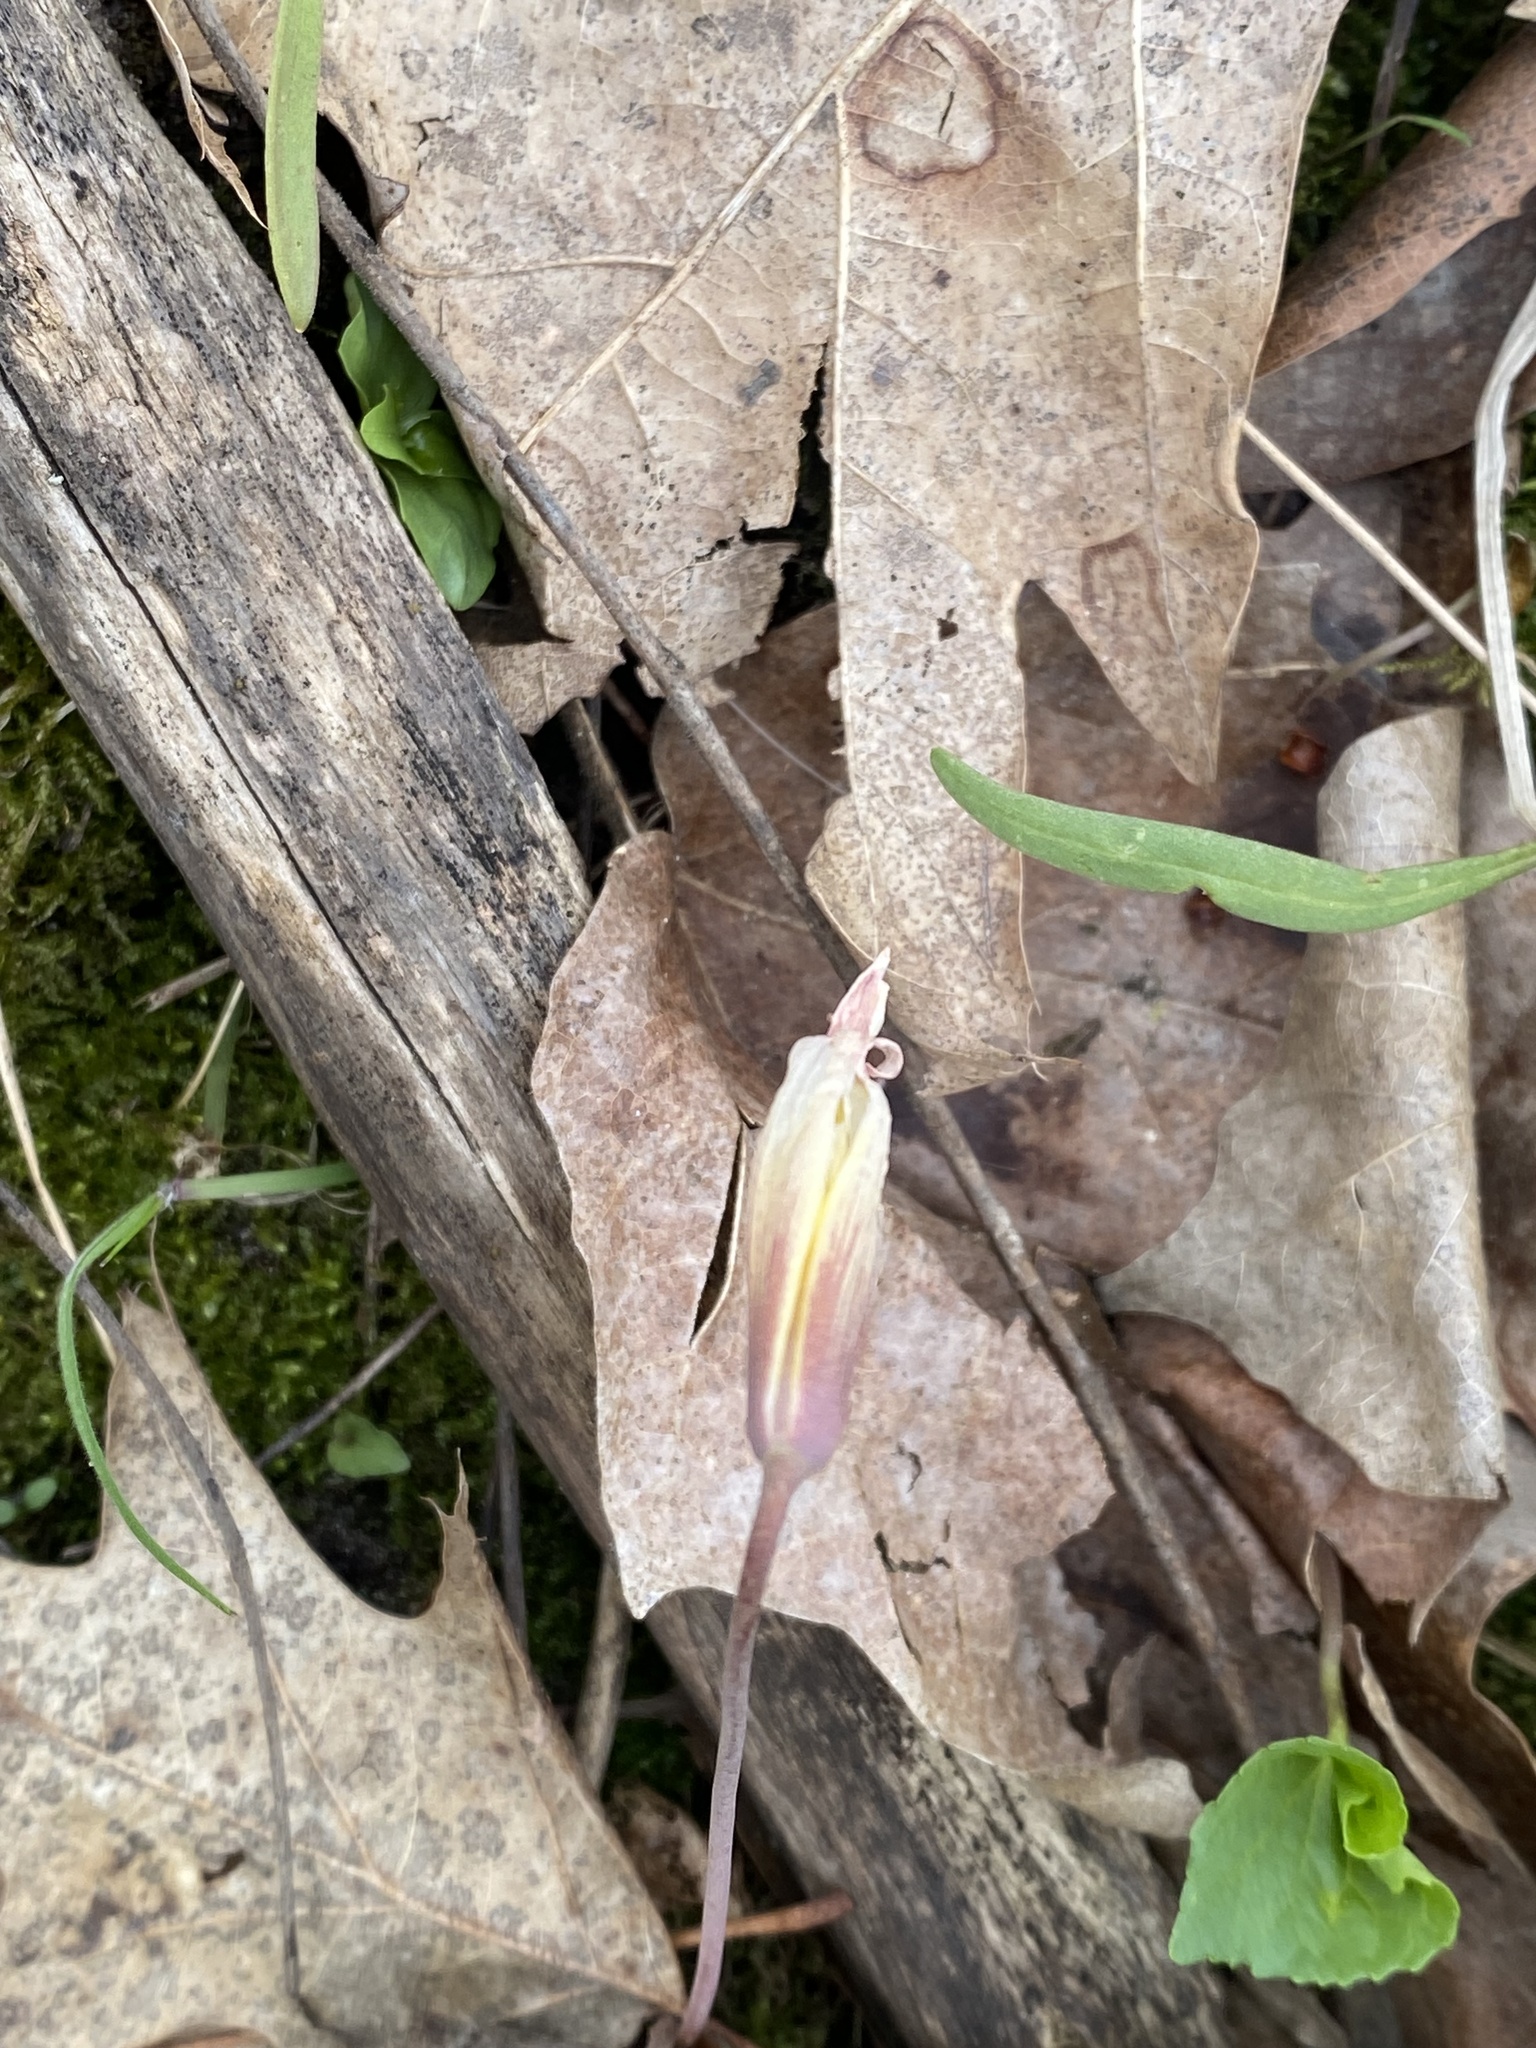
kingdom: Plantae
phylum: Tracheophyta
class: Liliopsida
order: Liliales
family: Liliaceae
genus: Erythronium
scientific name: Erythronium americanum
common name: Yellow adder's-tongue
